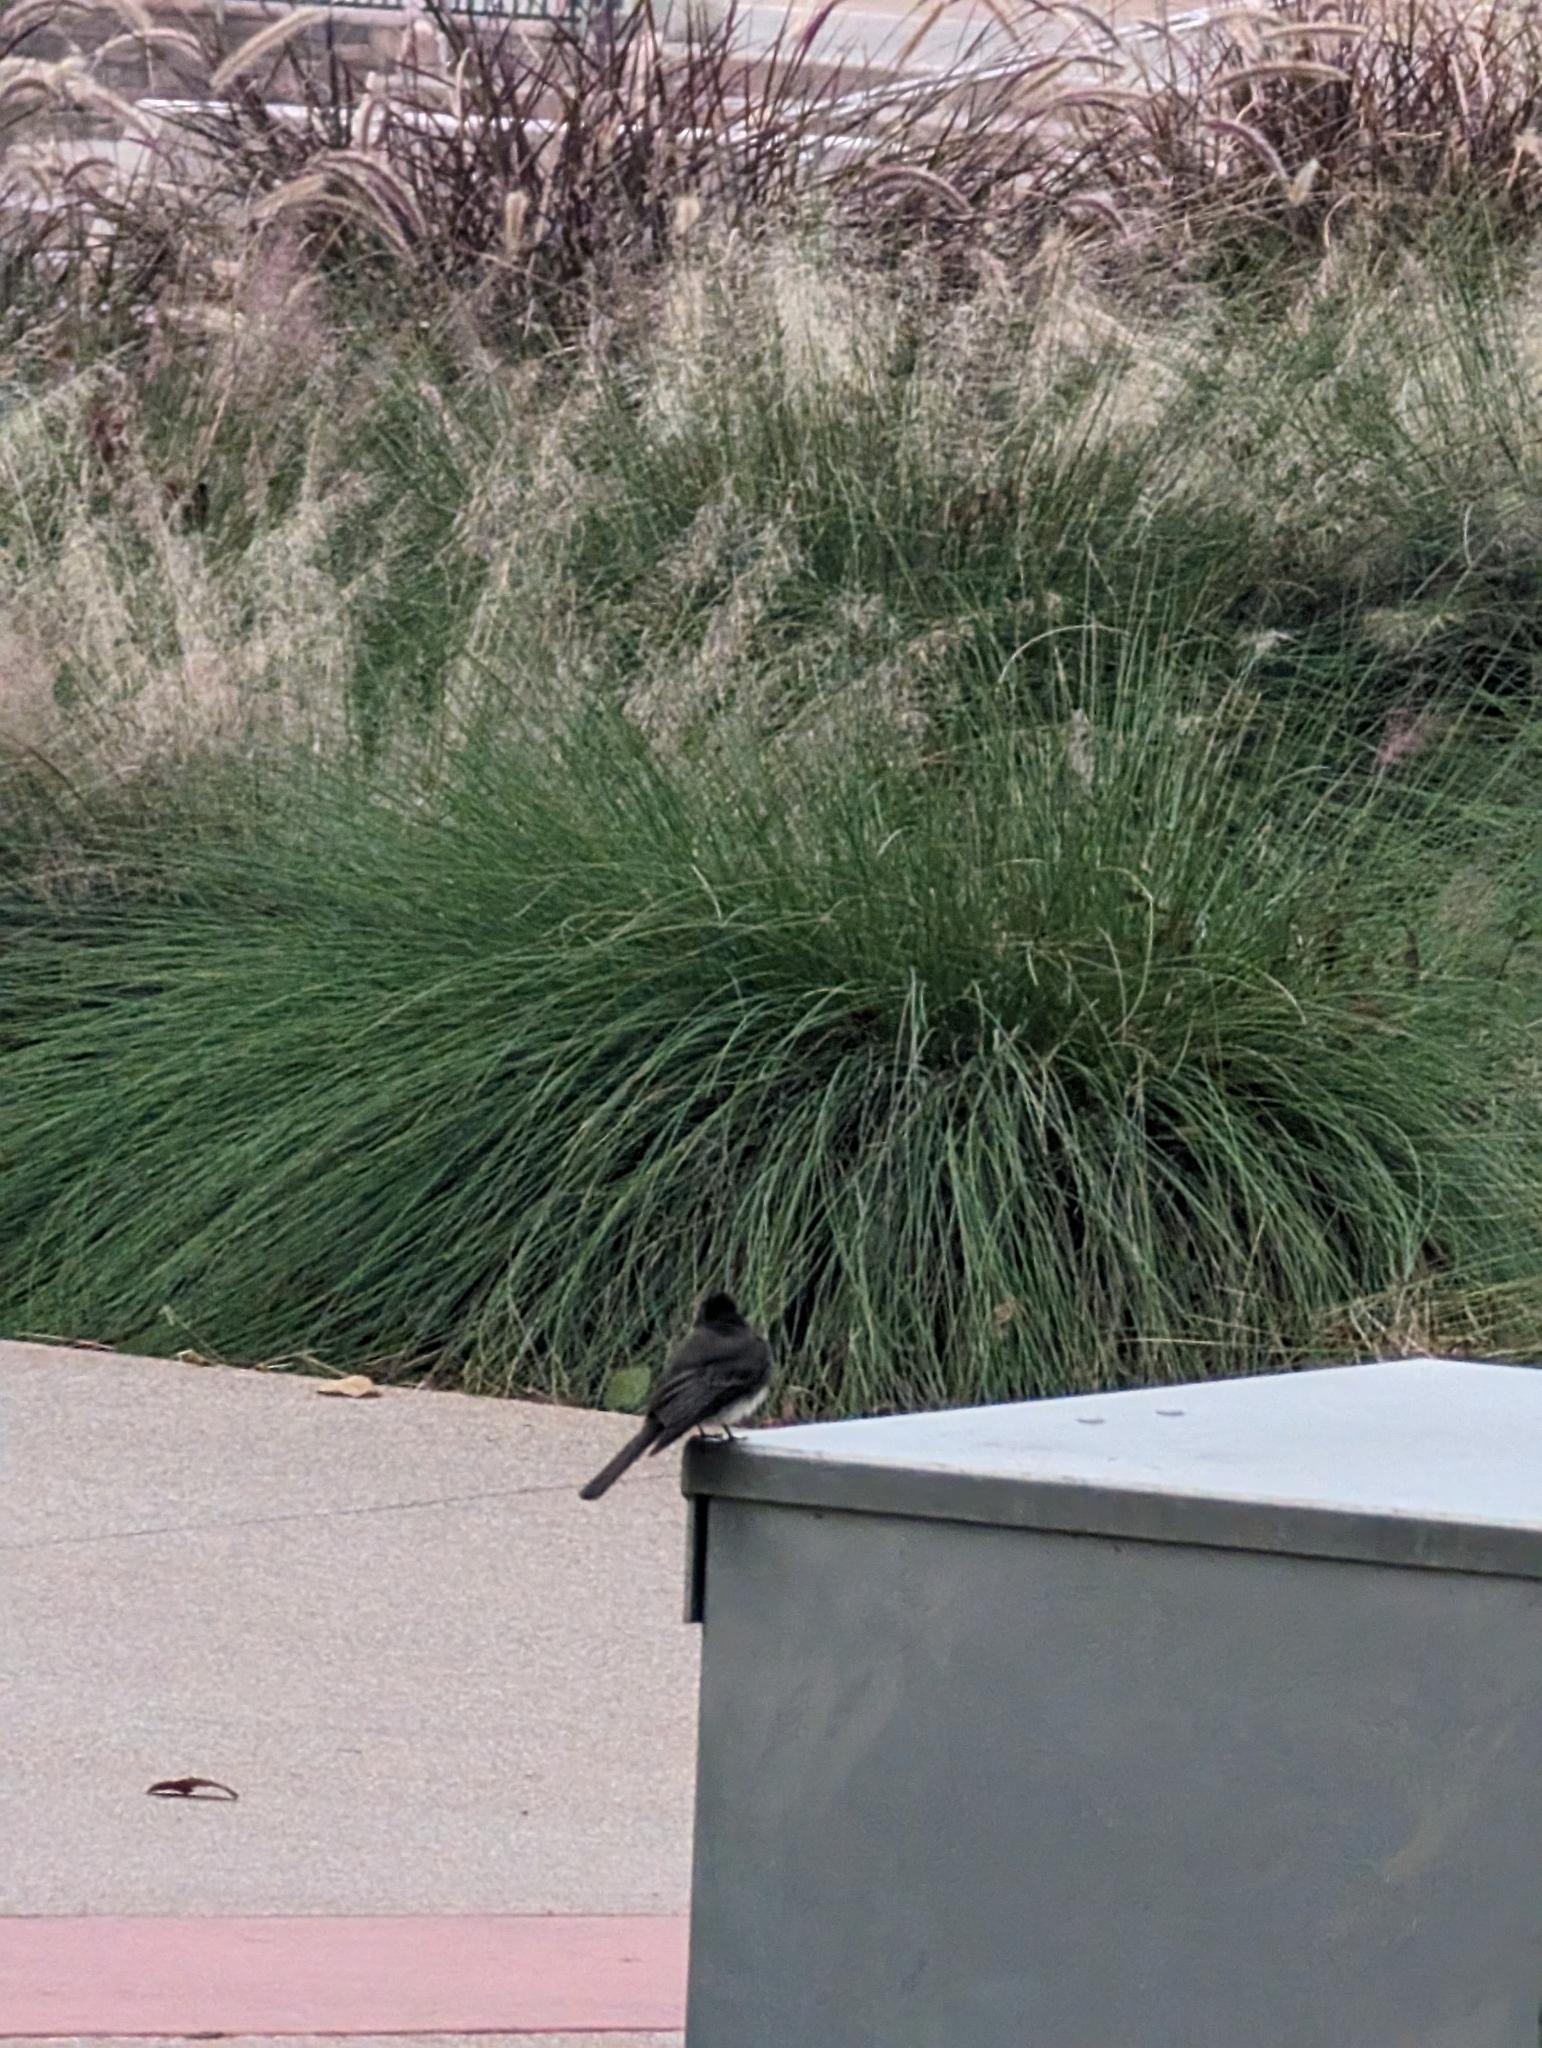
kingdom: Animalia
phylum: Chordata
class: Aves
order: Passeriformes
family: Tyrannidae
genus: Sayornis
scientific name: Sayornis nigricans
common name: Black phoebe
